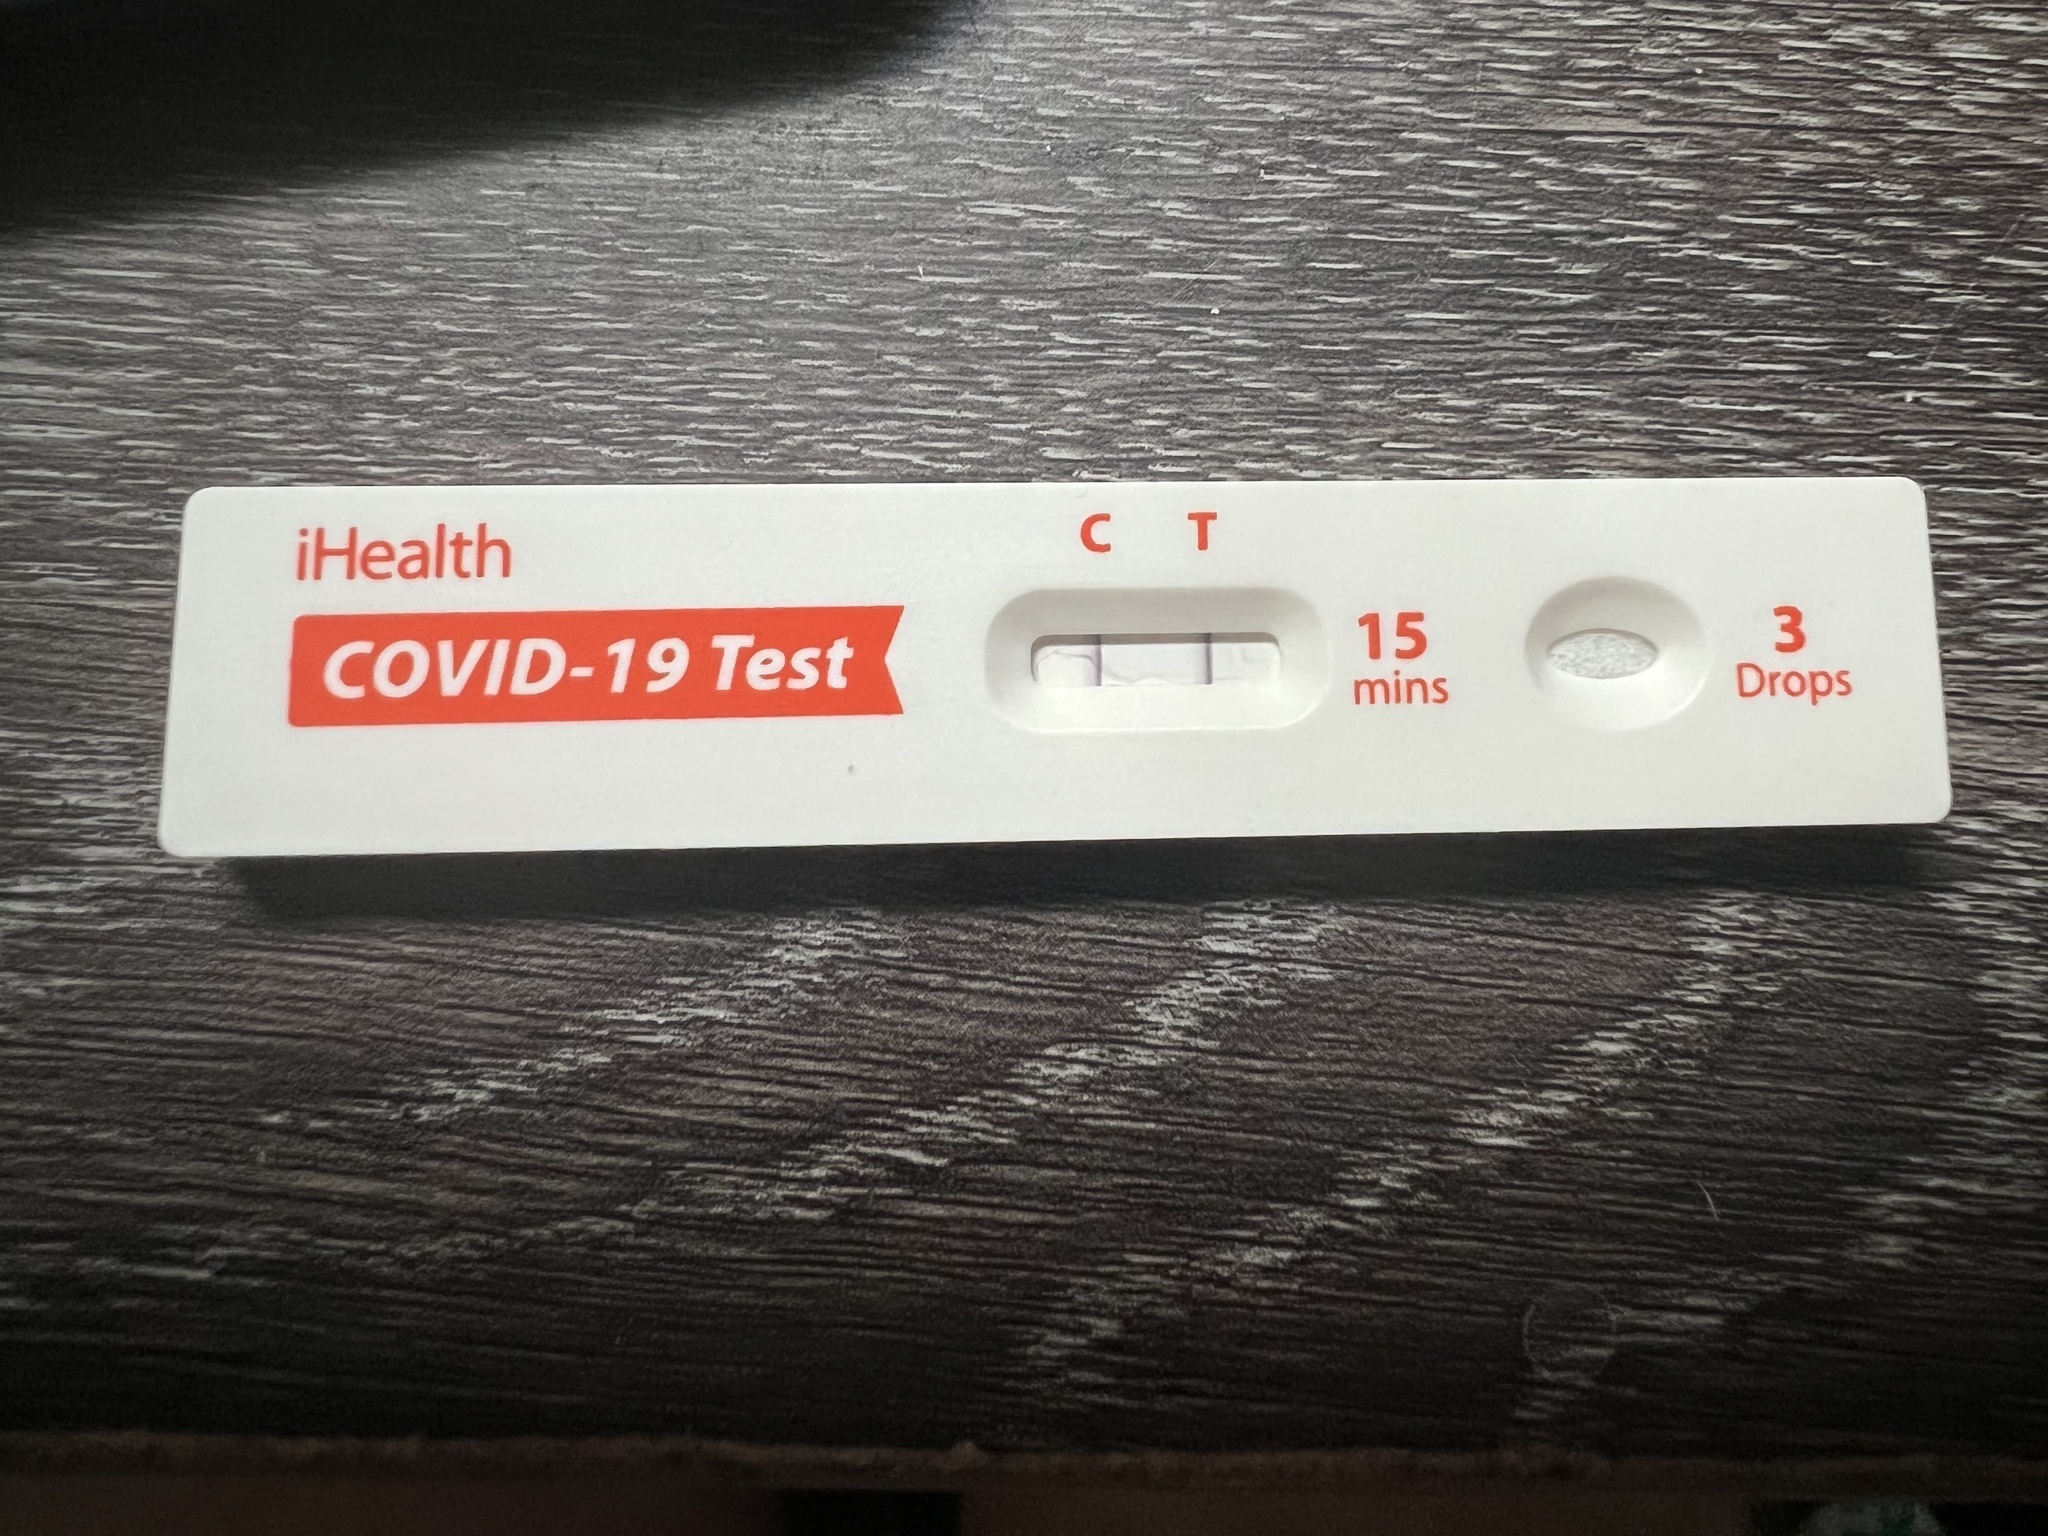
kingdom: Viruses
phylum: Pisuviricota
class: Pisoniviricetes
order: Nidovirales
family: Coronaviridae
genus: Betacoronavirus
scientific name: Betacoronavirus
